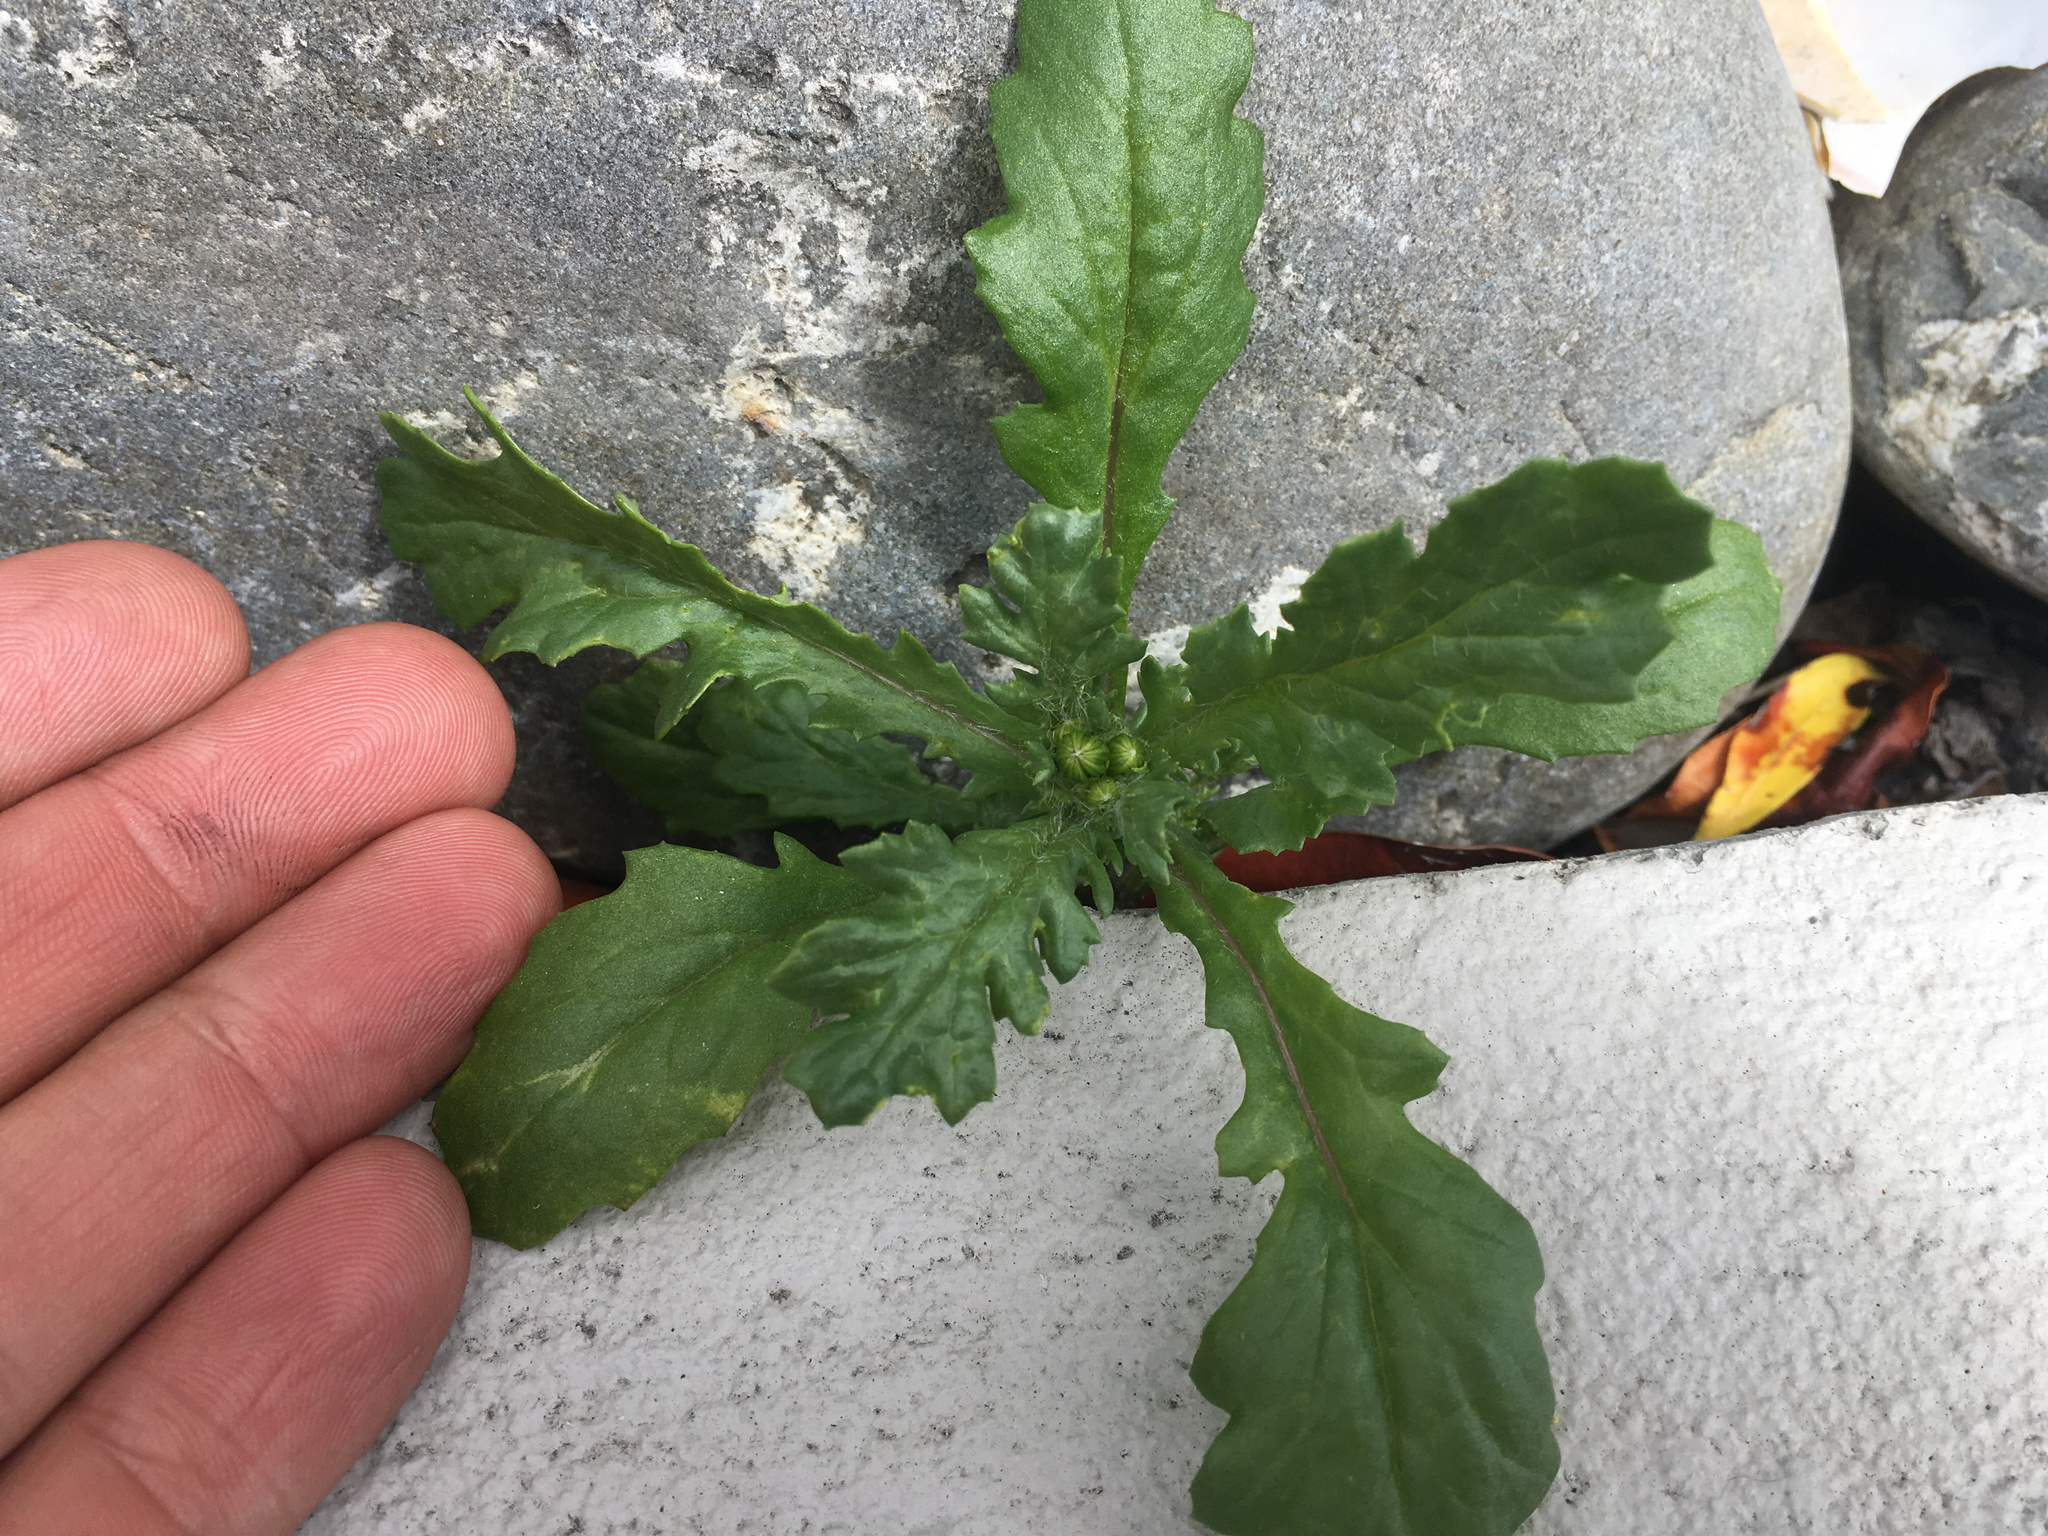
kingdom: Plantae
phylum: Tracheophyta
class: Magnoliopsida
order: Asterales
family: Asteraceae
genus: Senecio
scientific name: Senecio vulgaris
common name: Old-man-in-the-spring
